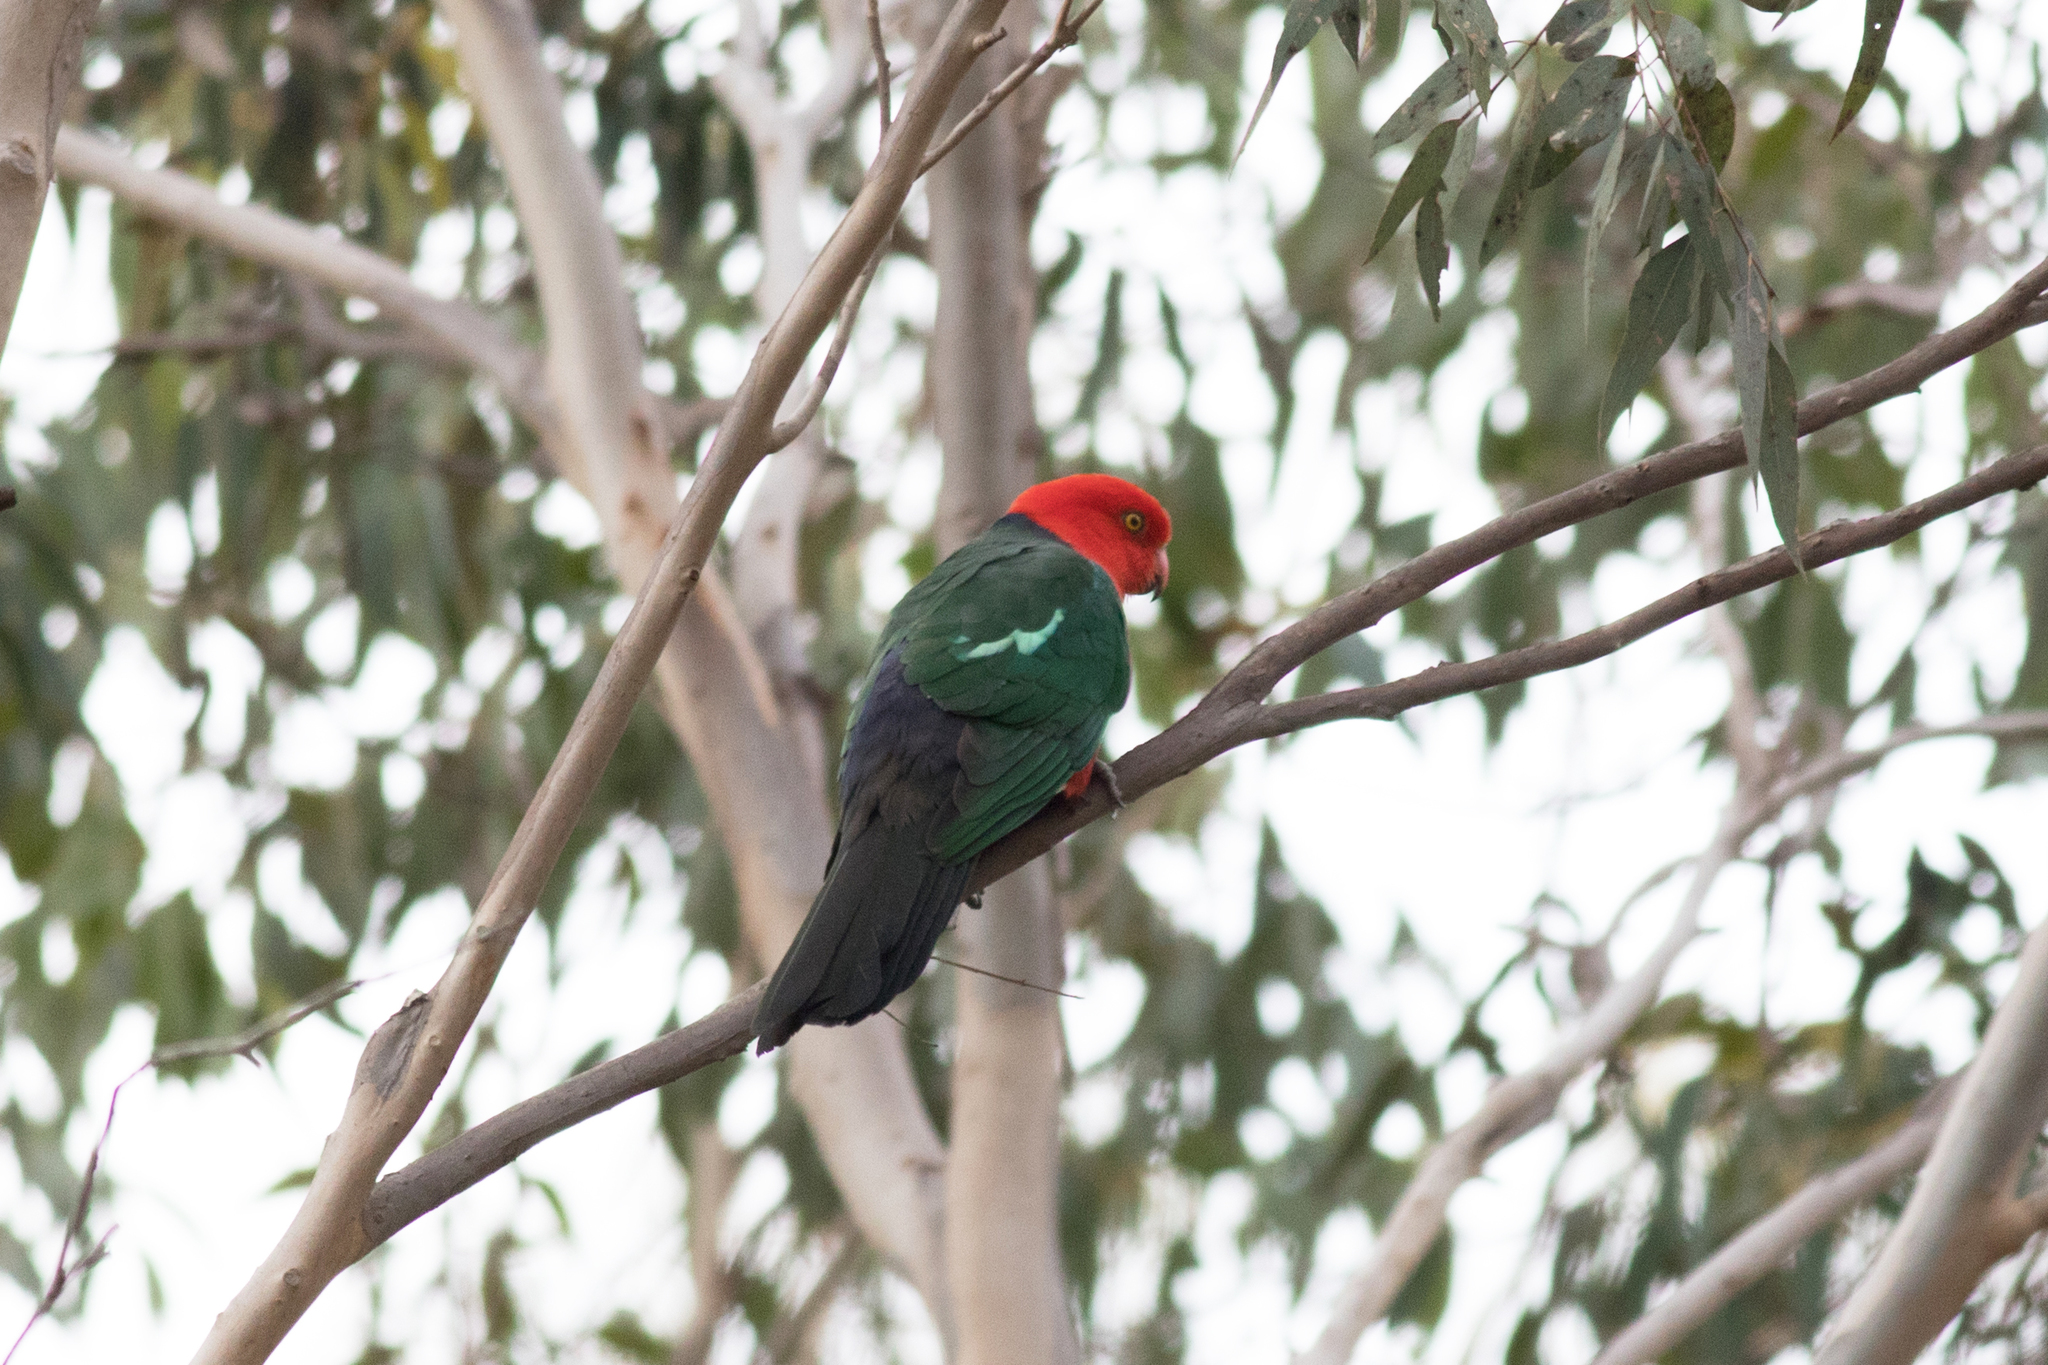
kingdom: Animalia
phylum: Chordata
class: Aves
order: Psittaciformes
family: Psittacidae
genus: Alisterus
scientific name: Alisterus scapularis
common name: Australian king parrot
